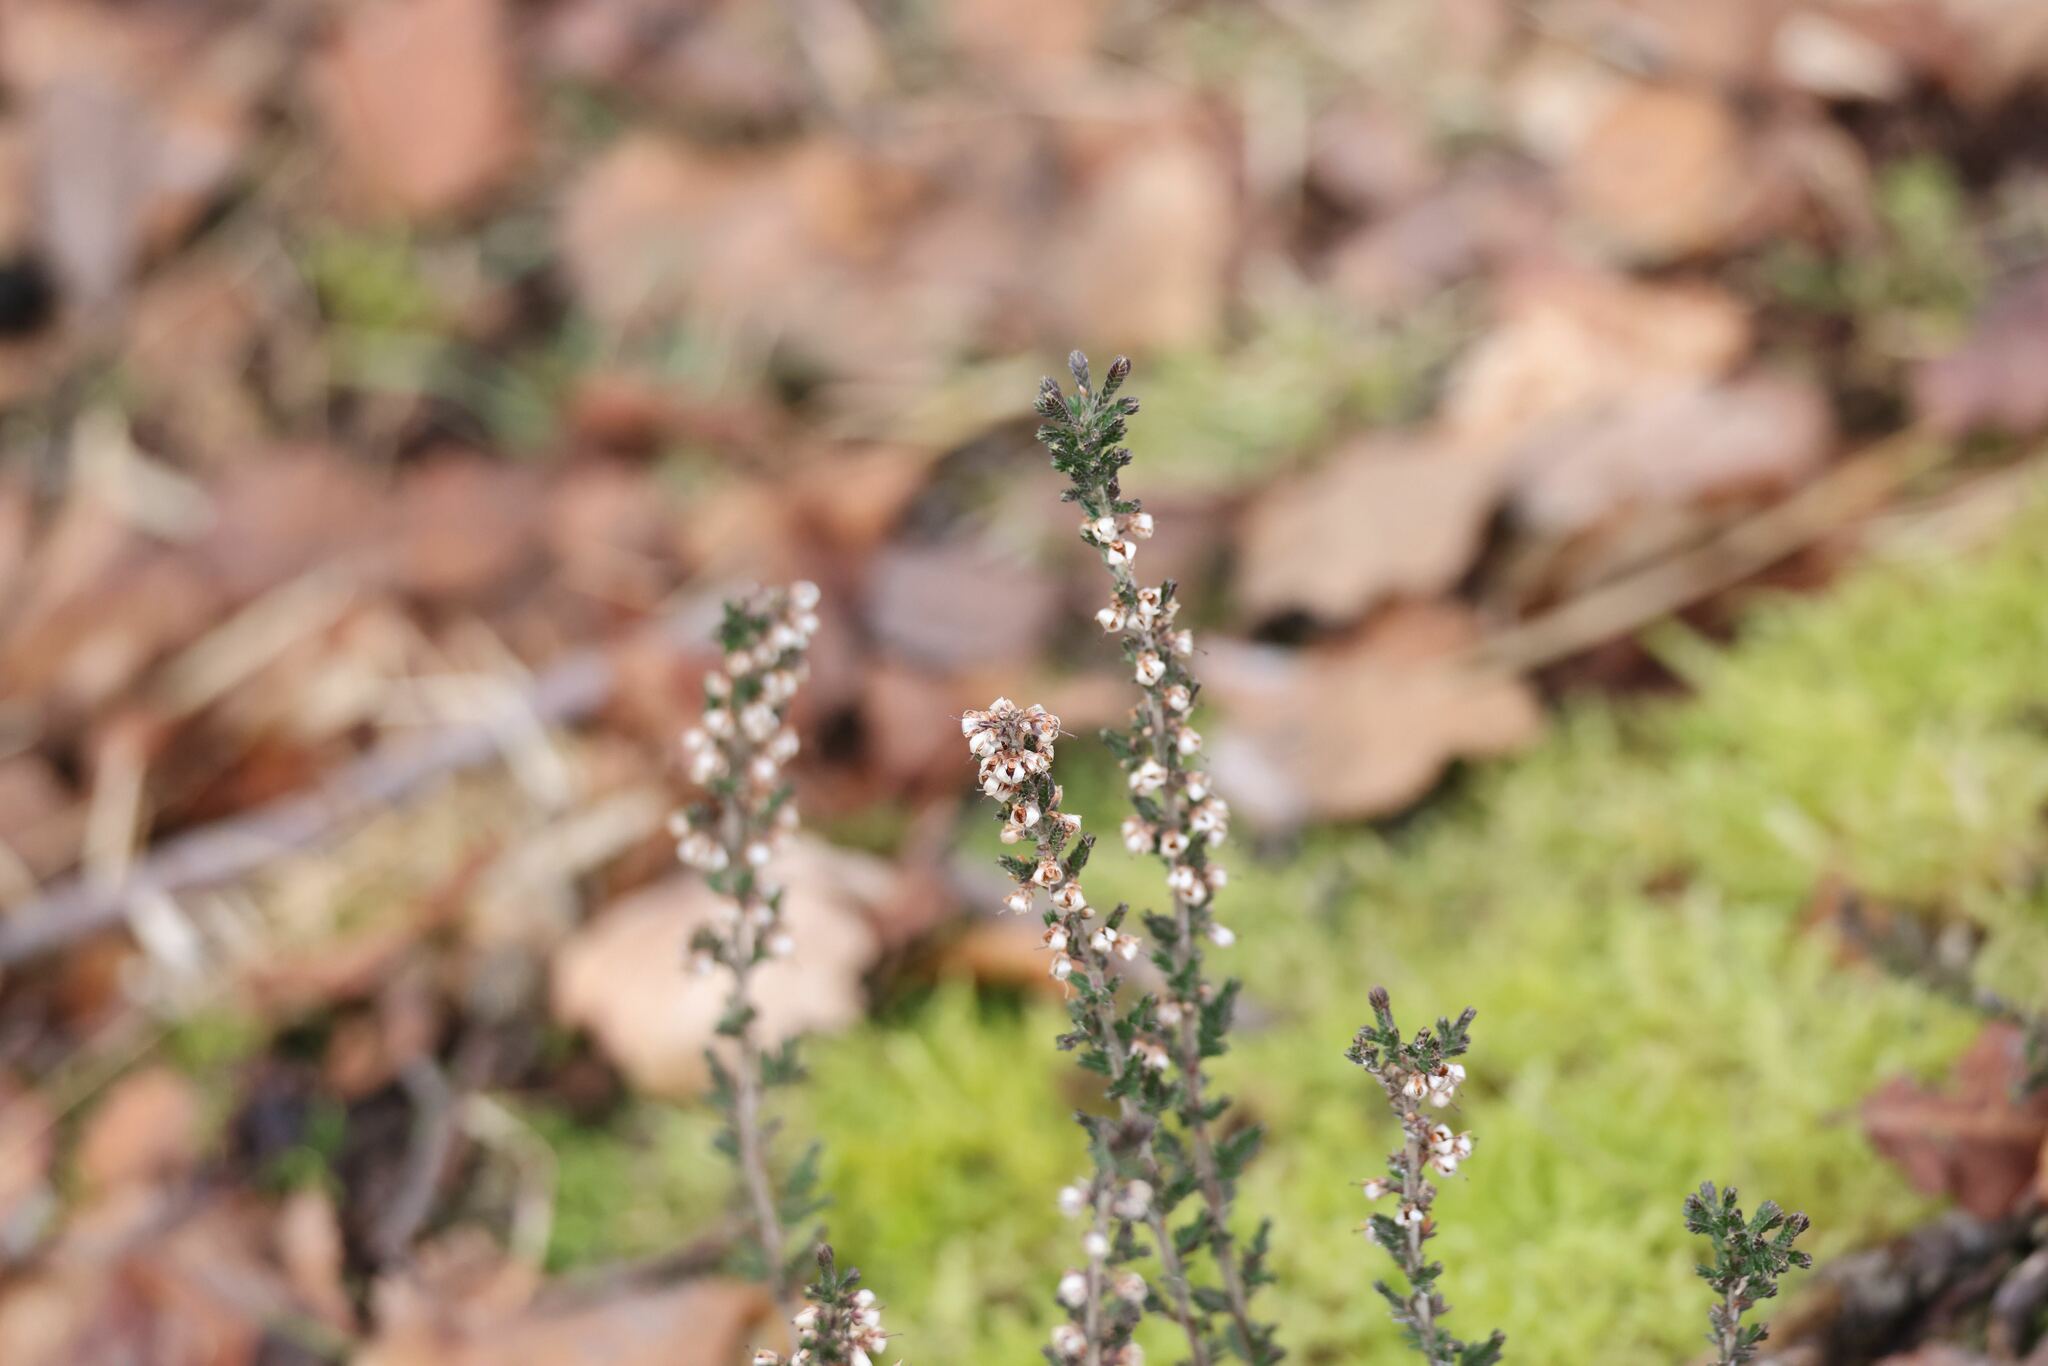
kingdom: Plantae
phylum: Tracheophyta
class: Magnoliopsida
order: Ericales
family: Ericaceae
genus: Calluna
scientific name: Calluna vulgaris
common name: Heather
